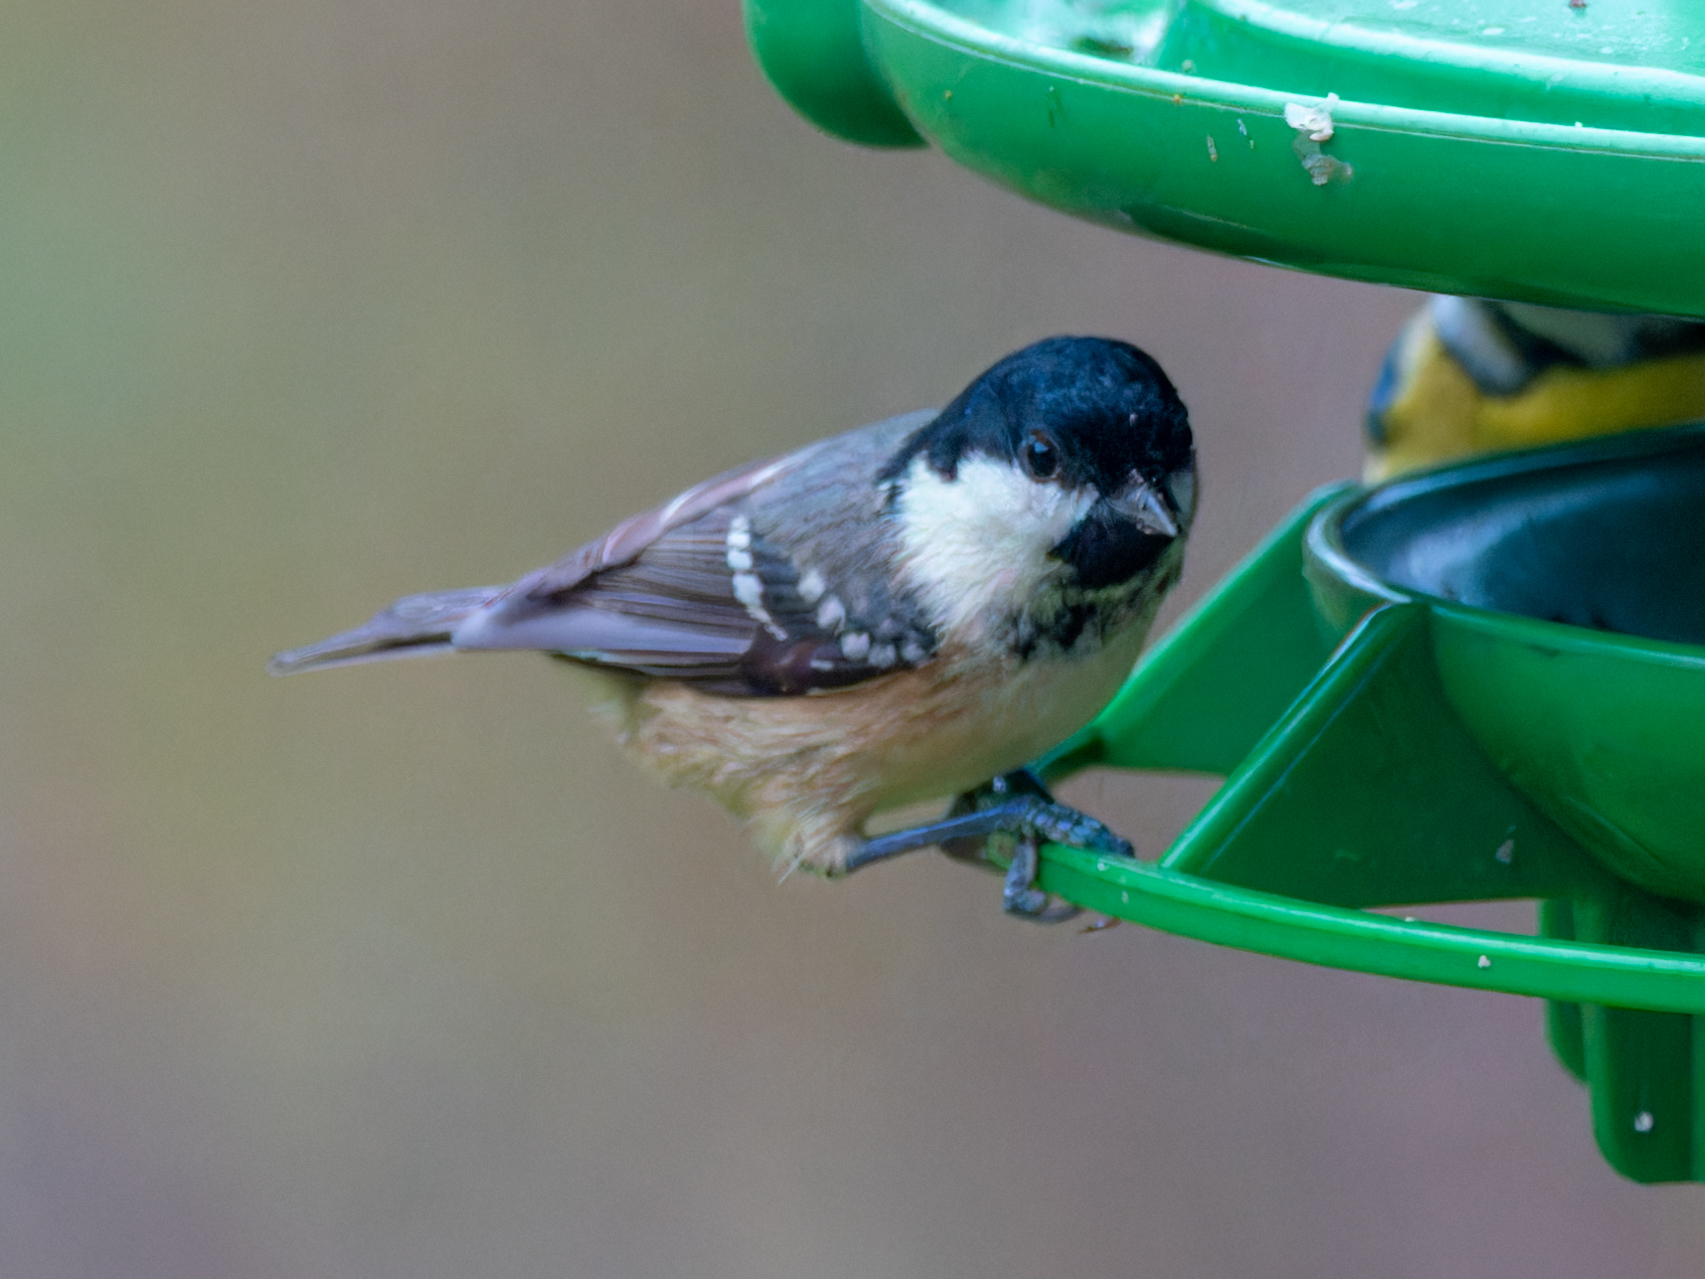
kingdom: Animalia
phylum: Chordata
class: Aves
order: Passeriformes
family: Paridae
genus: Periparus
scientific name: Periparus ater
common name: Coal tit
